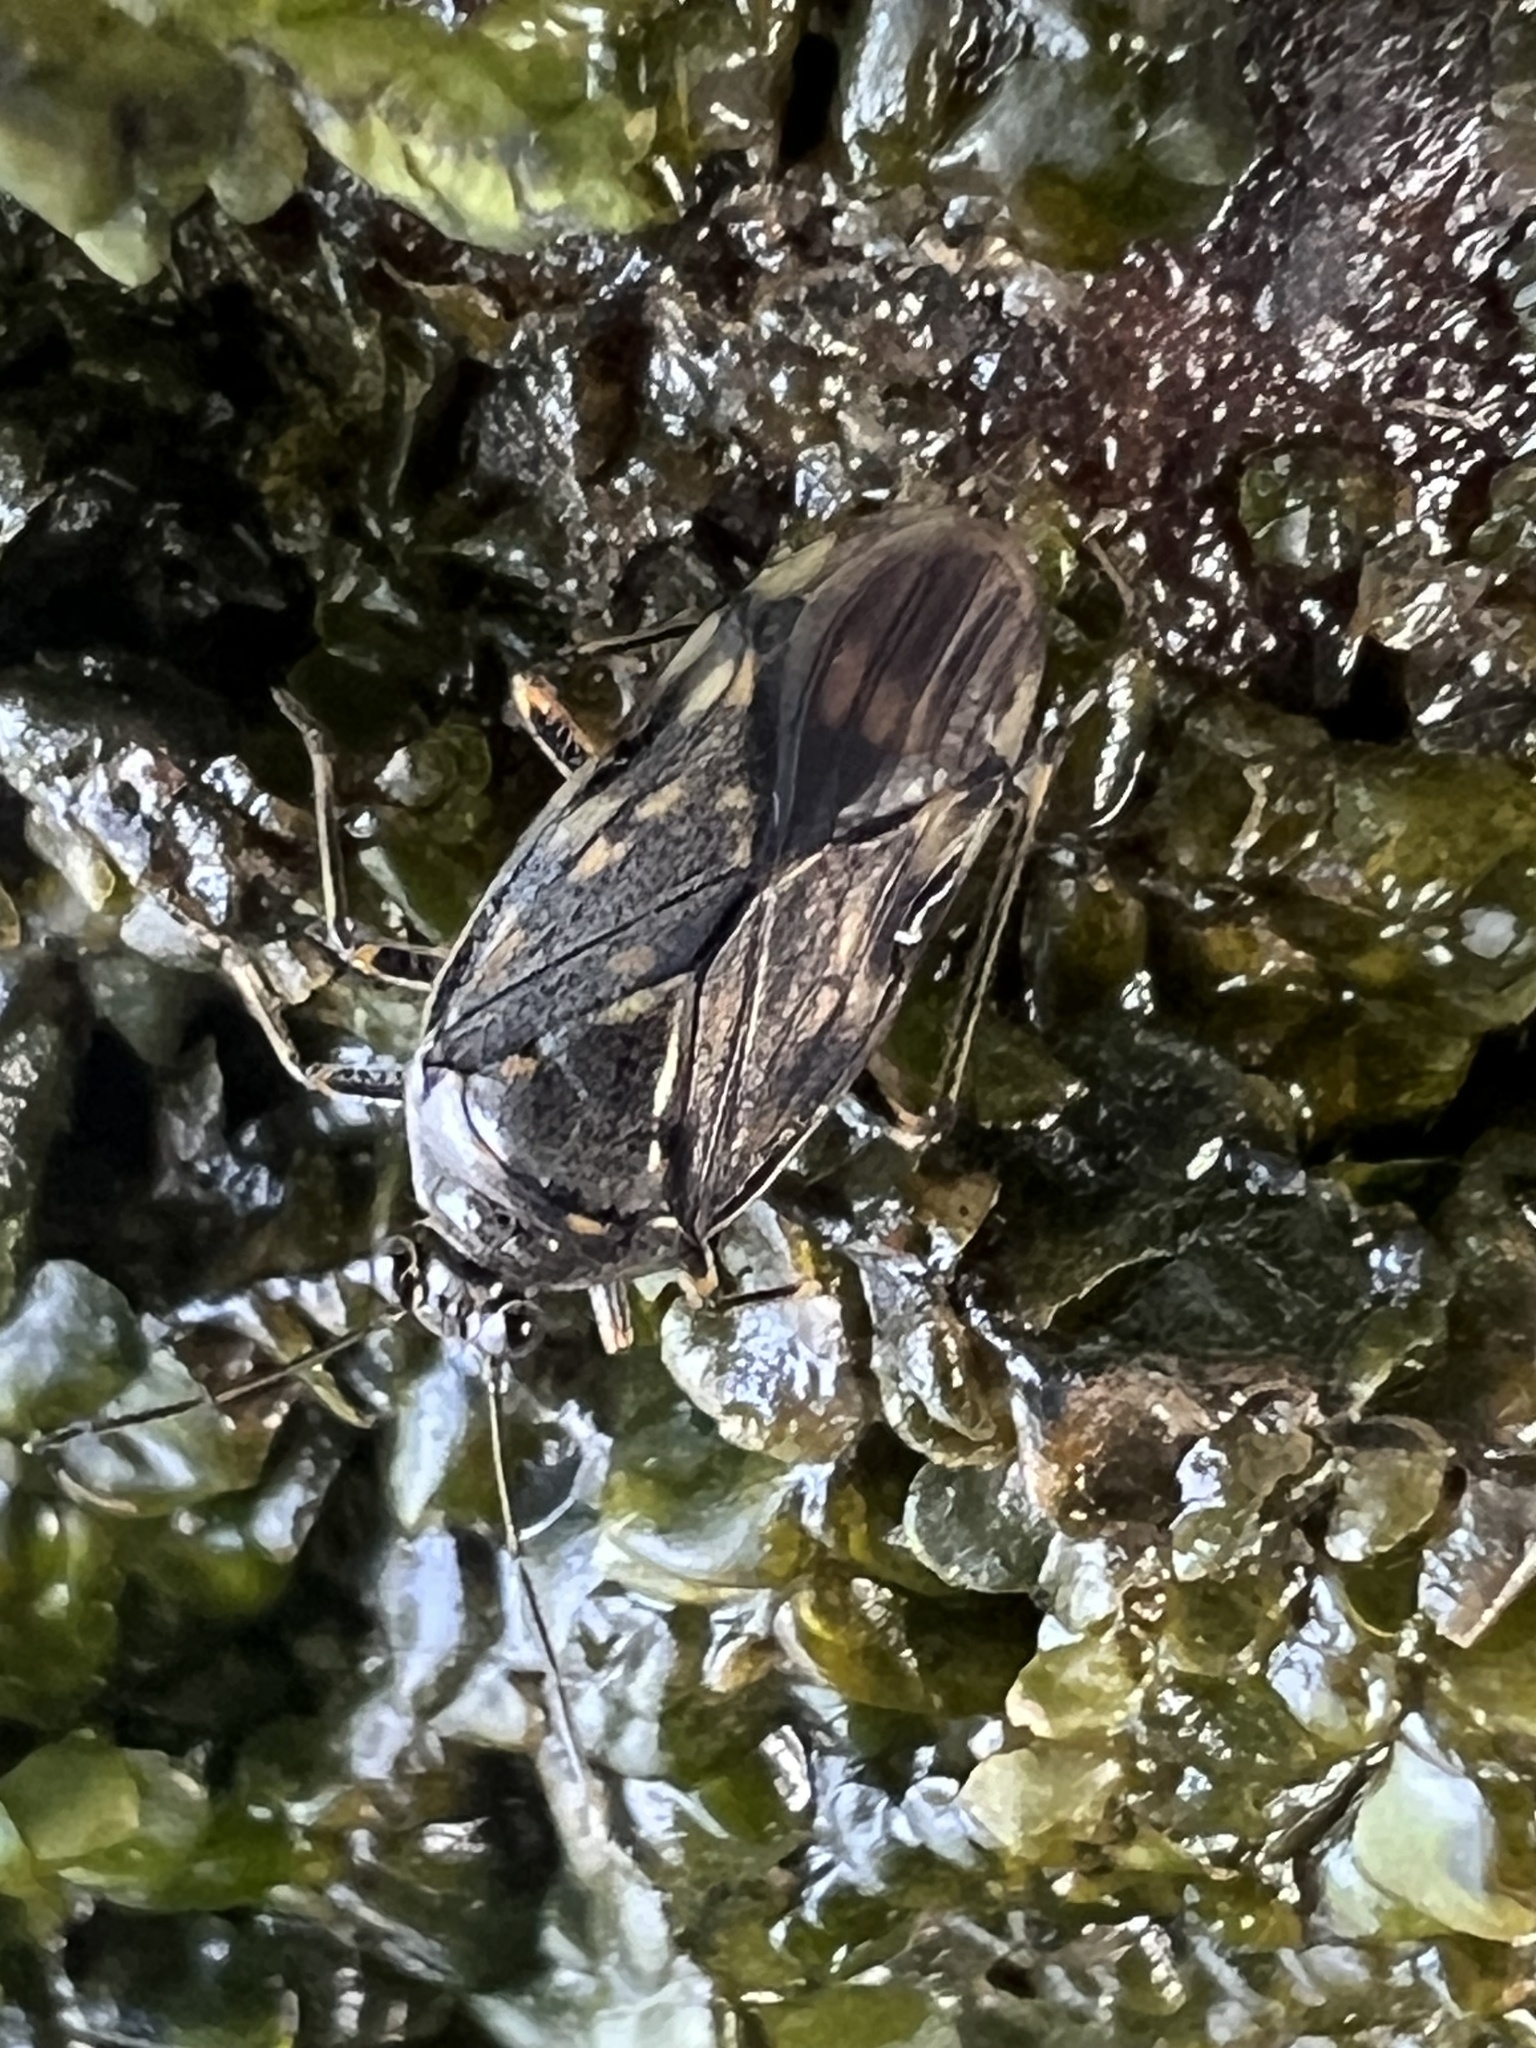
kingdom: Animalia
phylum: Arthropoda
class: Insecta
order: Hemiptera
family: Saldidae
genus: Pentacora
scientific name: Pentacora ligata
